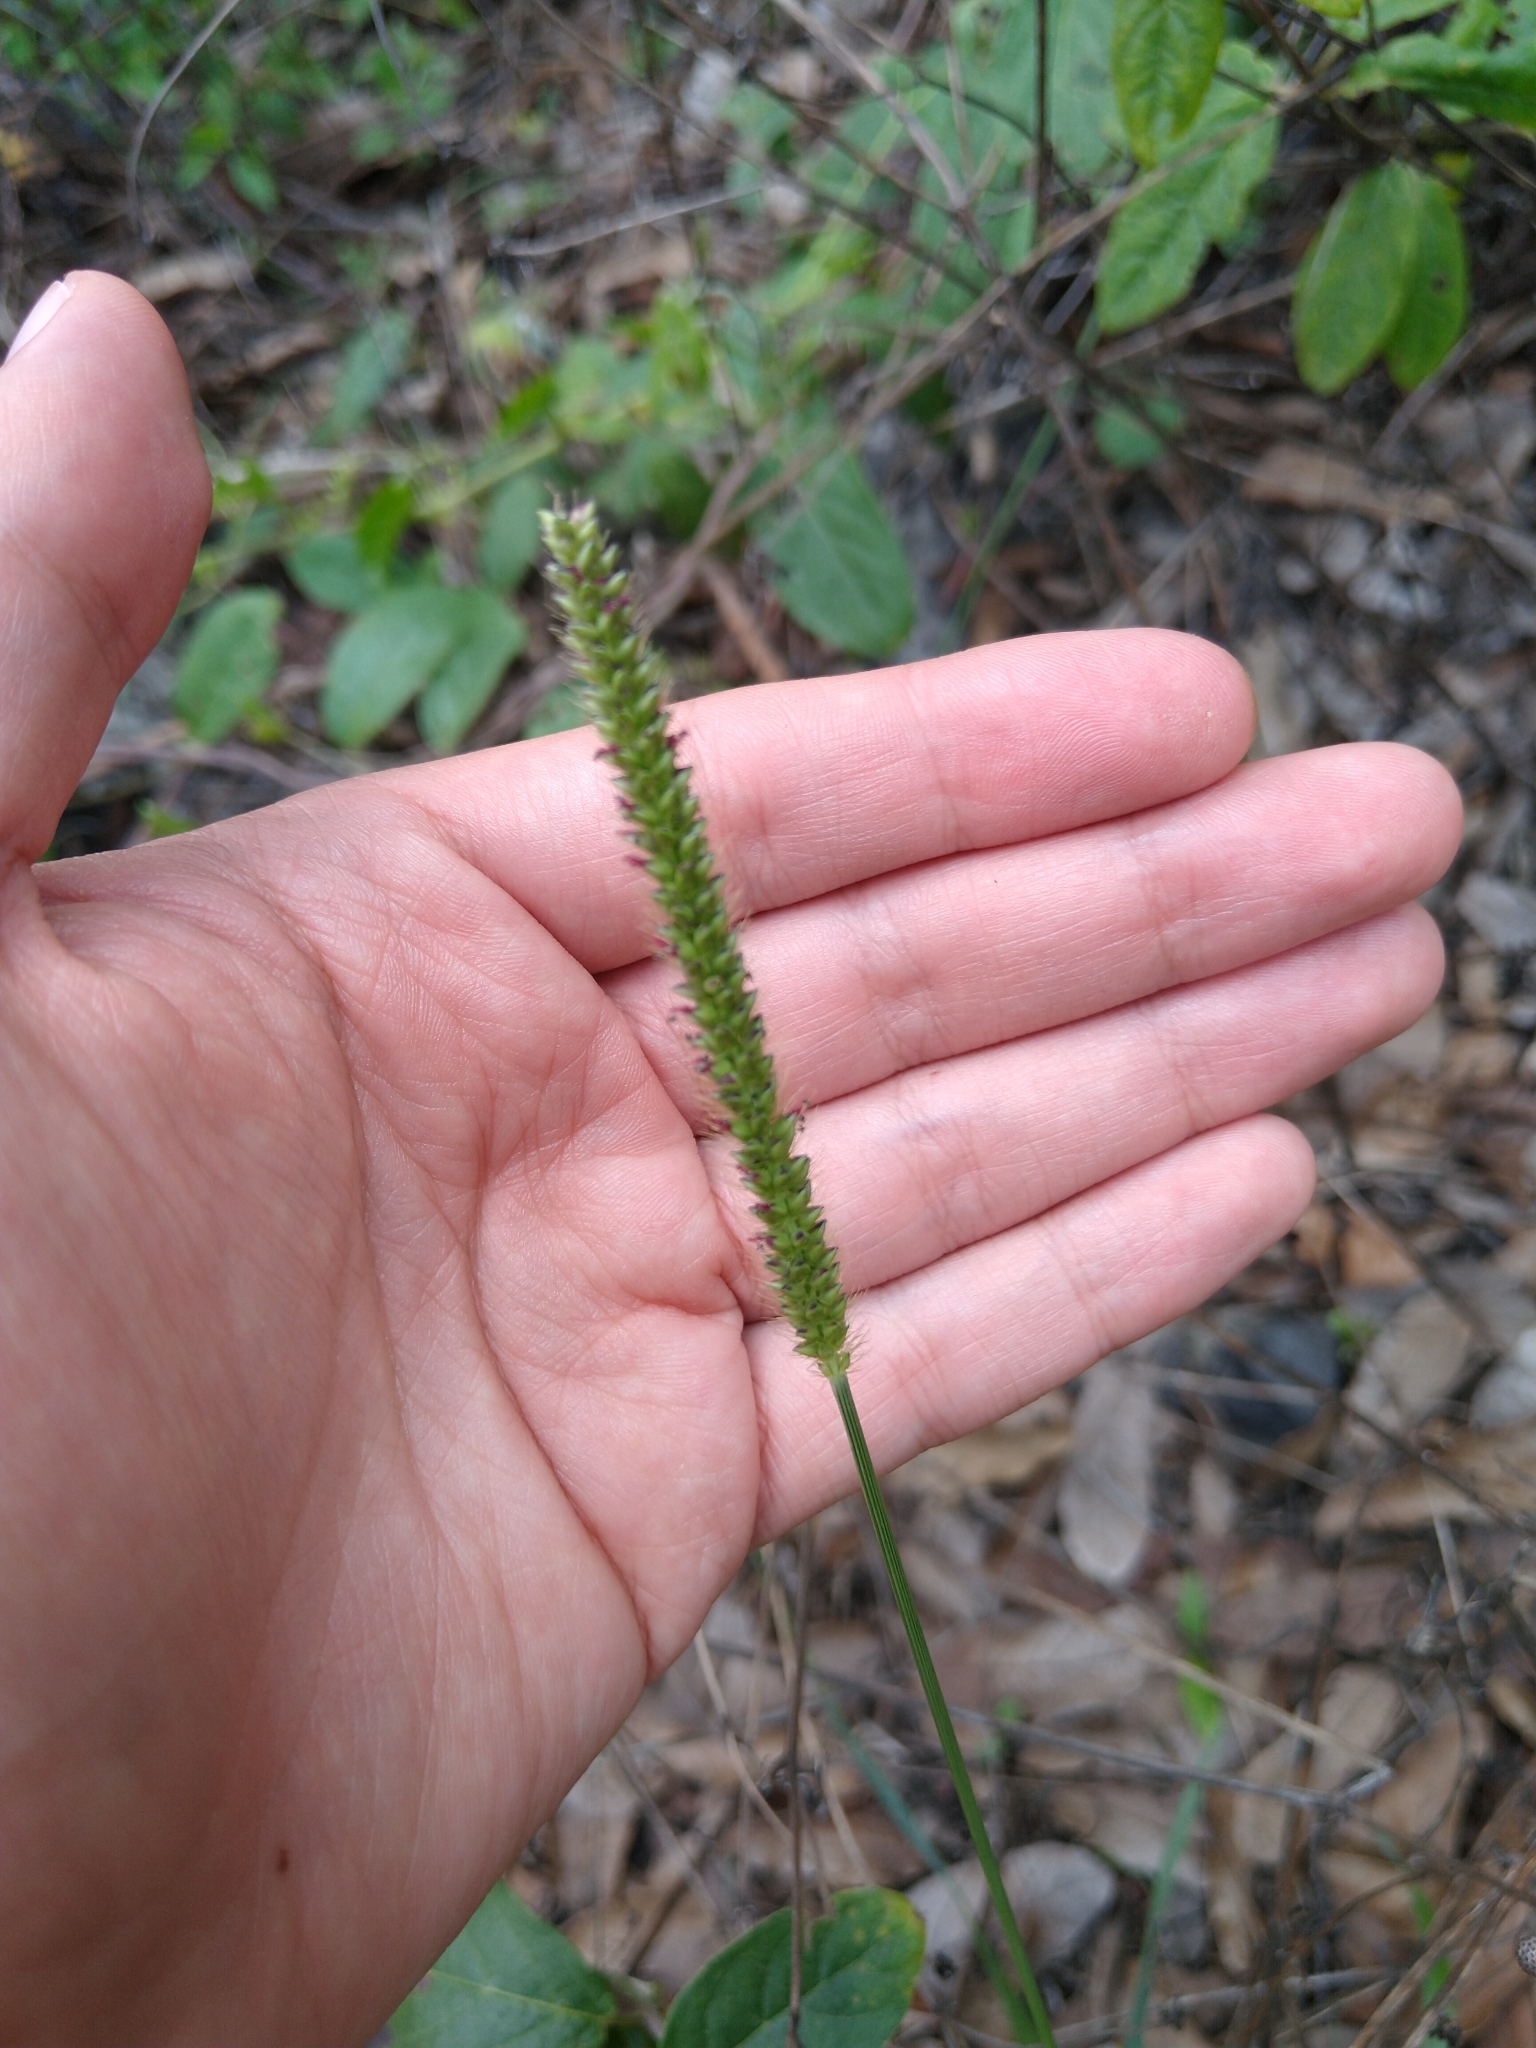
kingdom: Plantae
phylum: Tracheophyta
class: Liliopsida
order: Poales
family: Poaceae
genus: Setaria
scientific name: Setaria parviflora
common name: Knotroot bristle-grass
